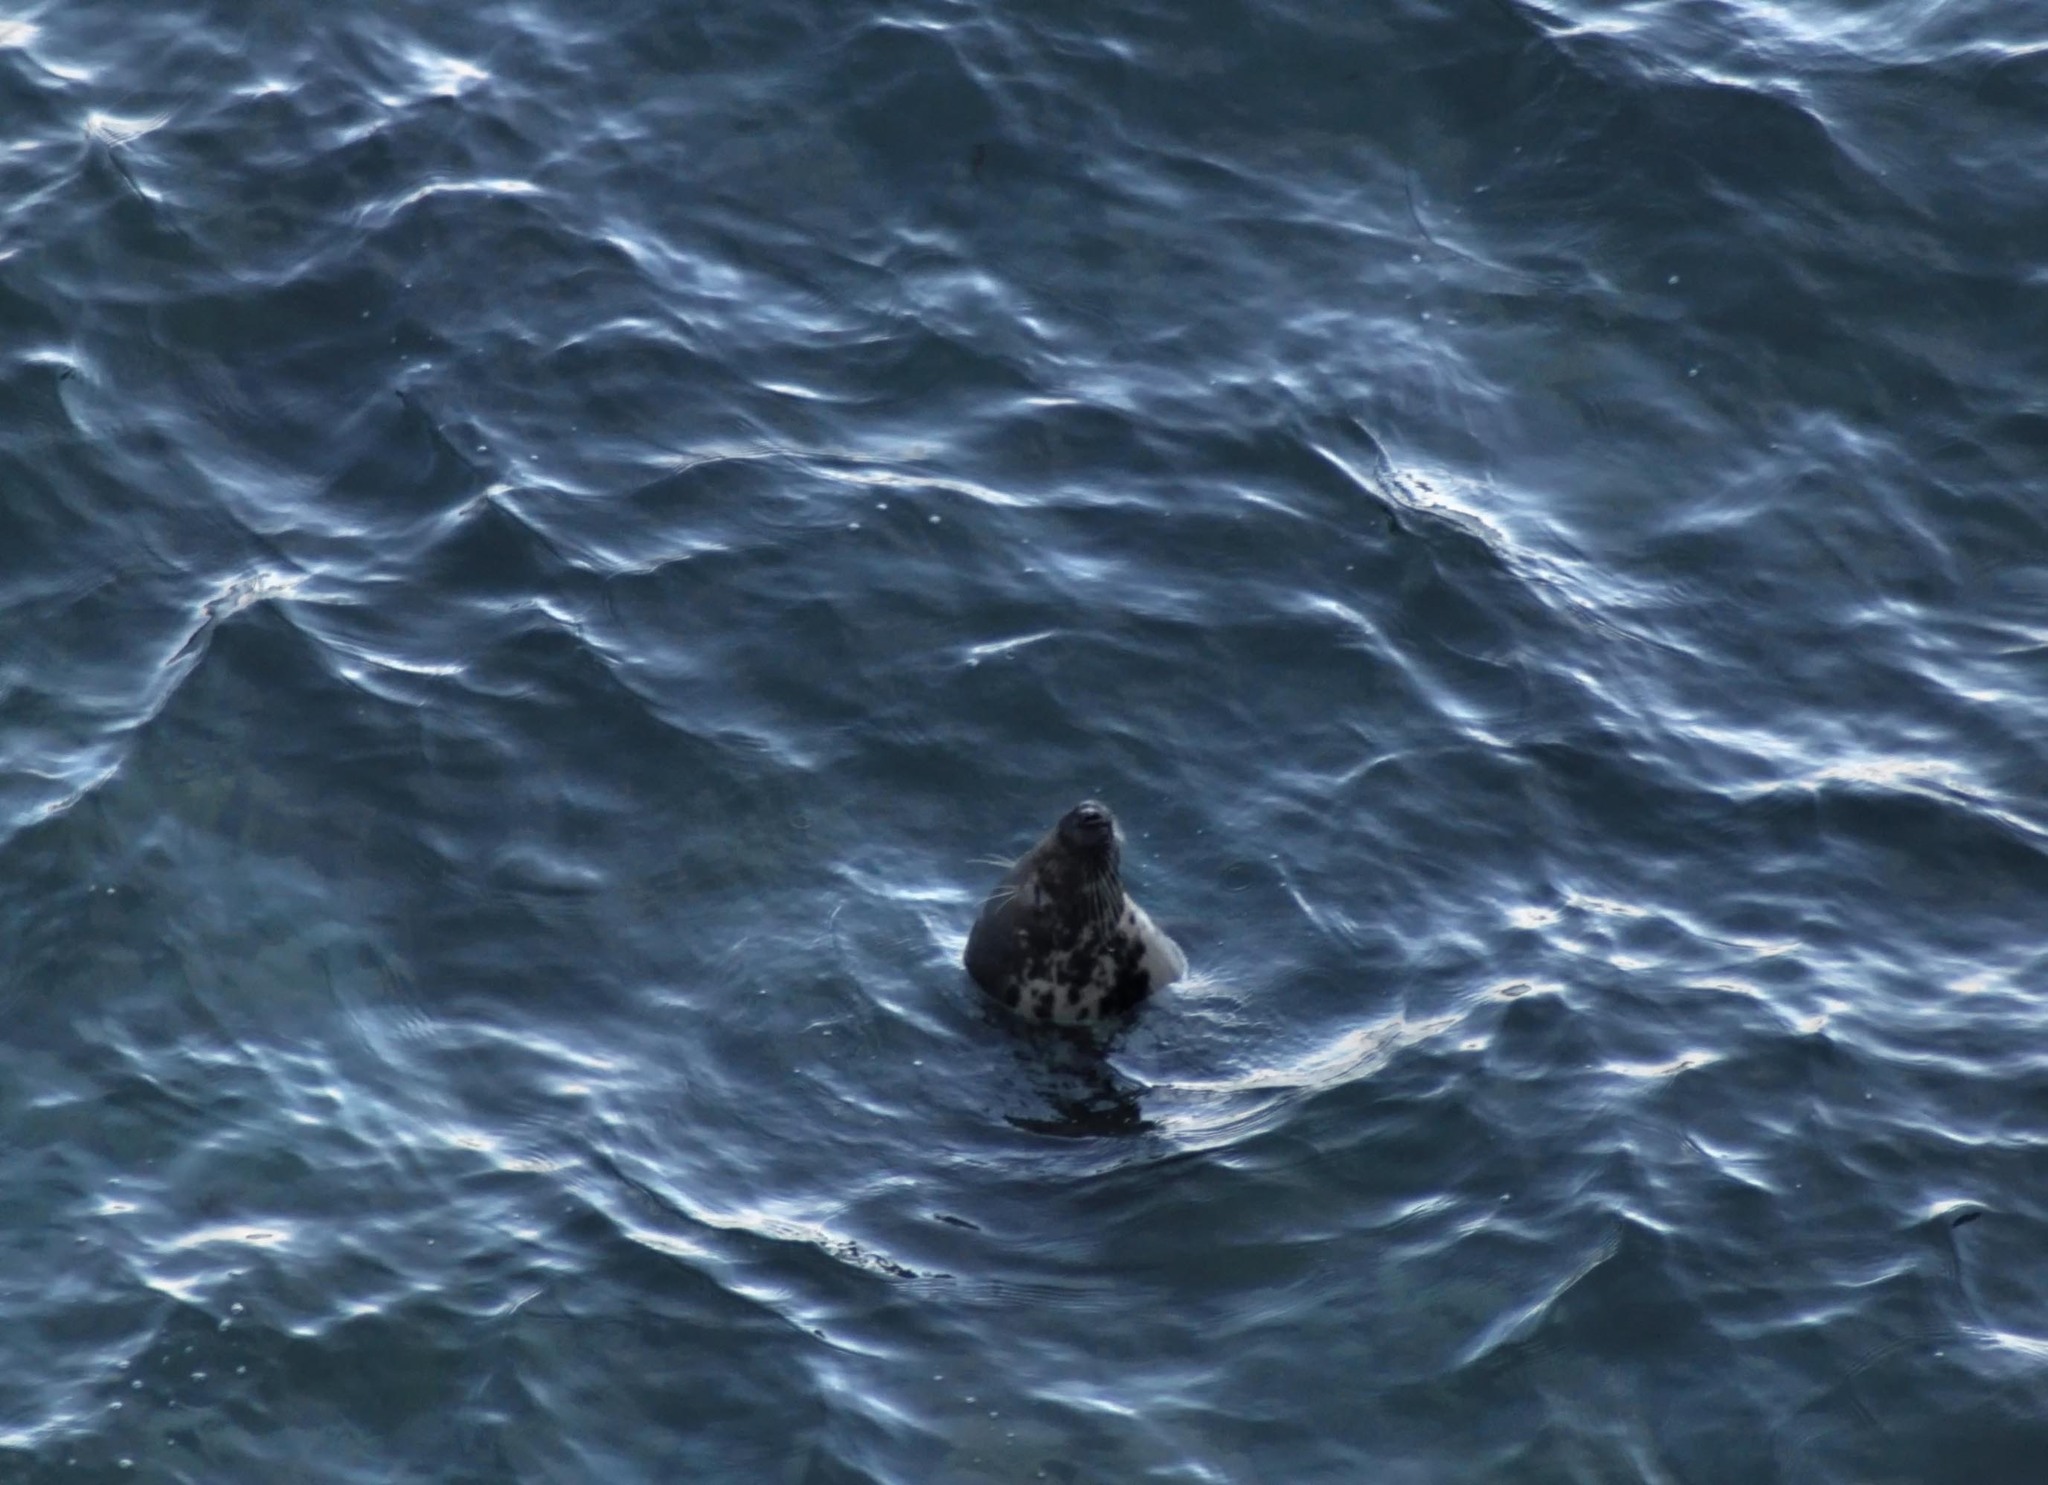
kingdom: Animalia
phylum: Chordata
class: Mammalia
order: Carnivora
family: Phocidae
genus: Halichoerus
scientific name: Halichoerus grypus
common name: Grey seal
